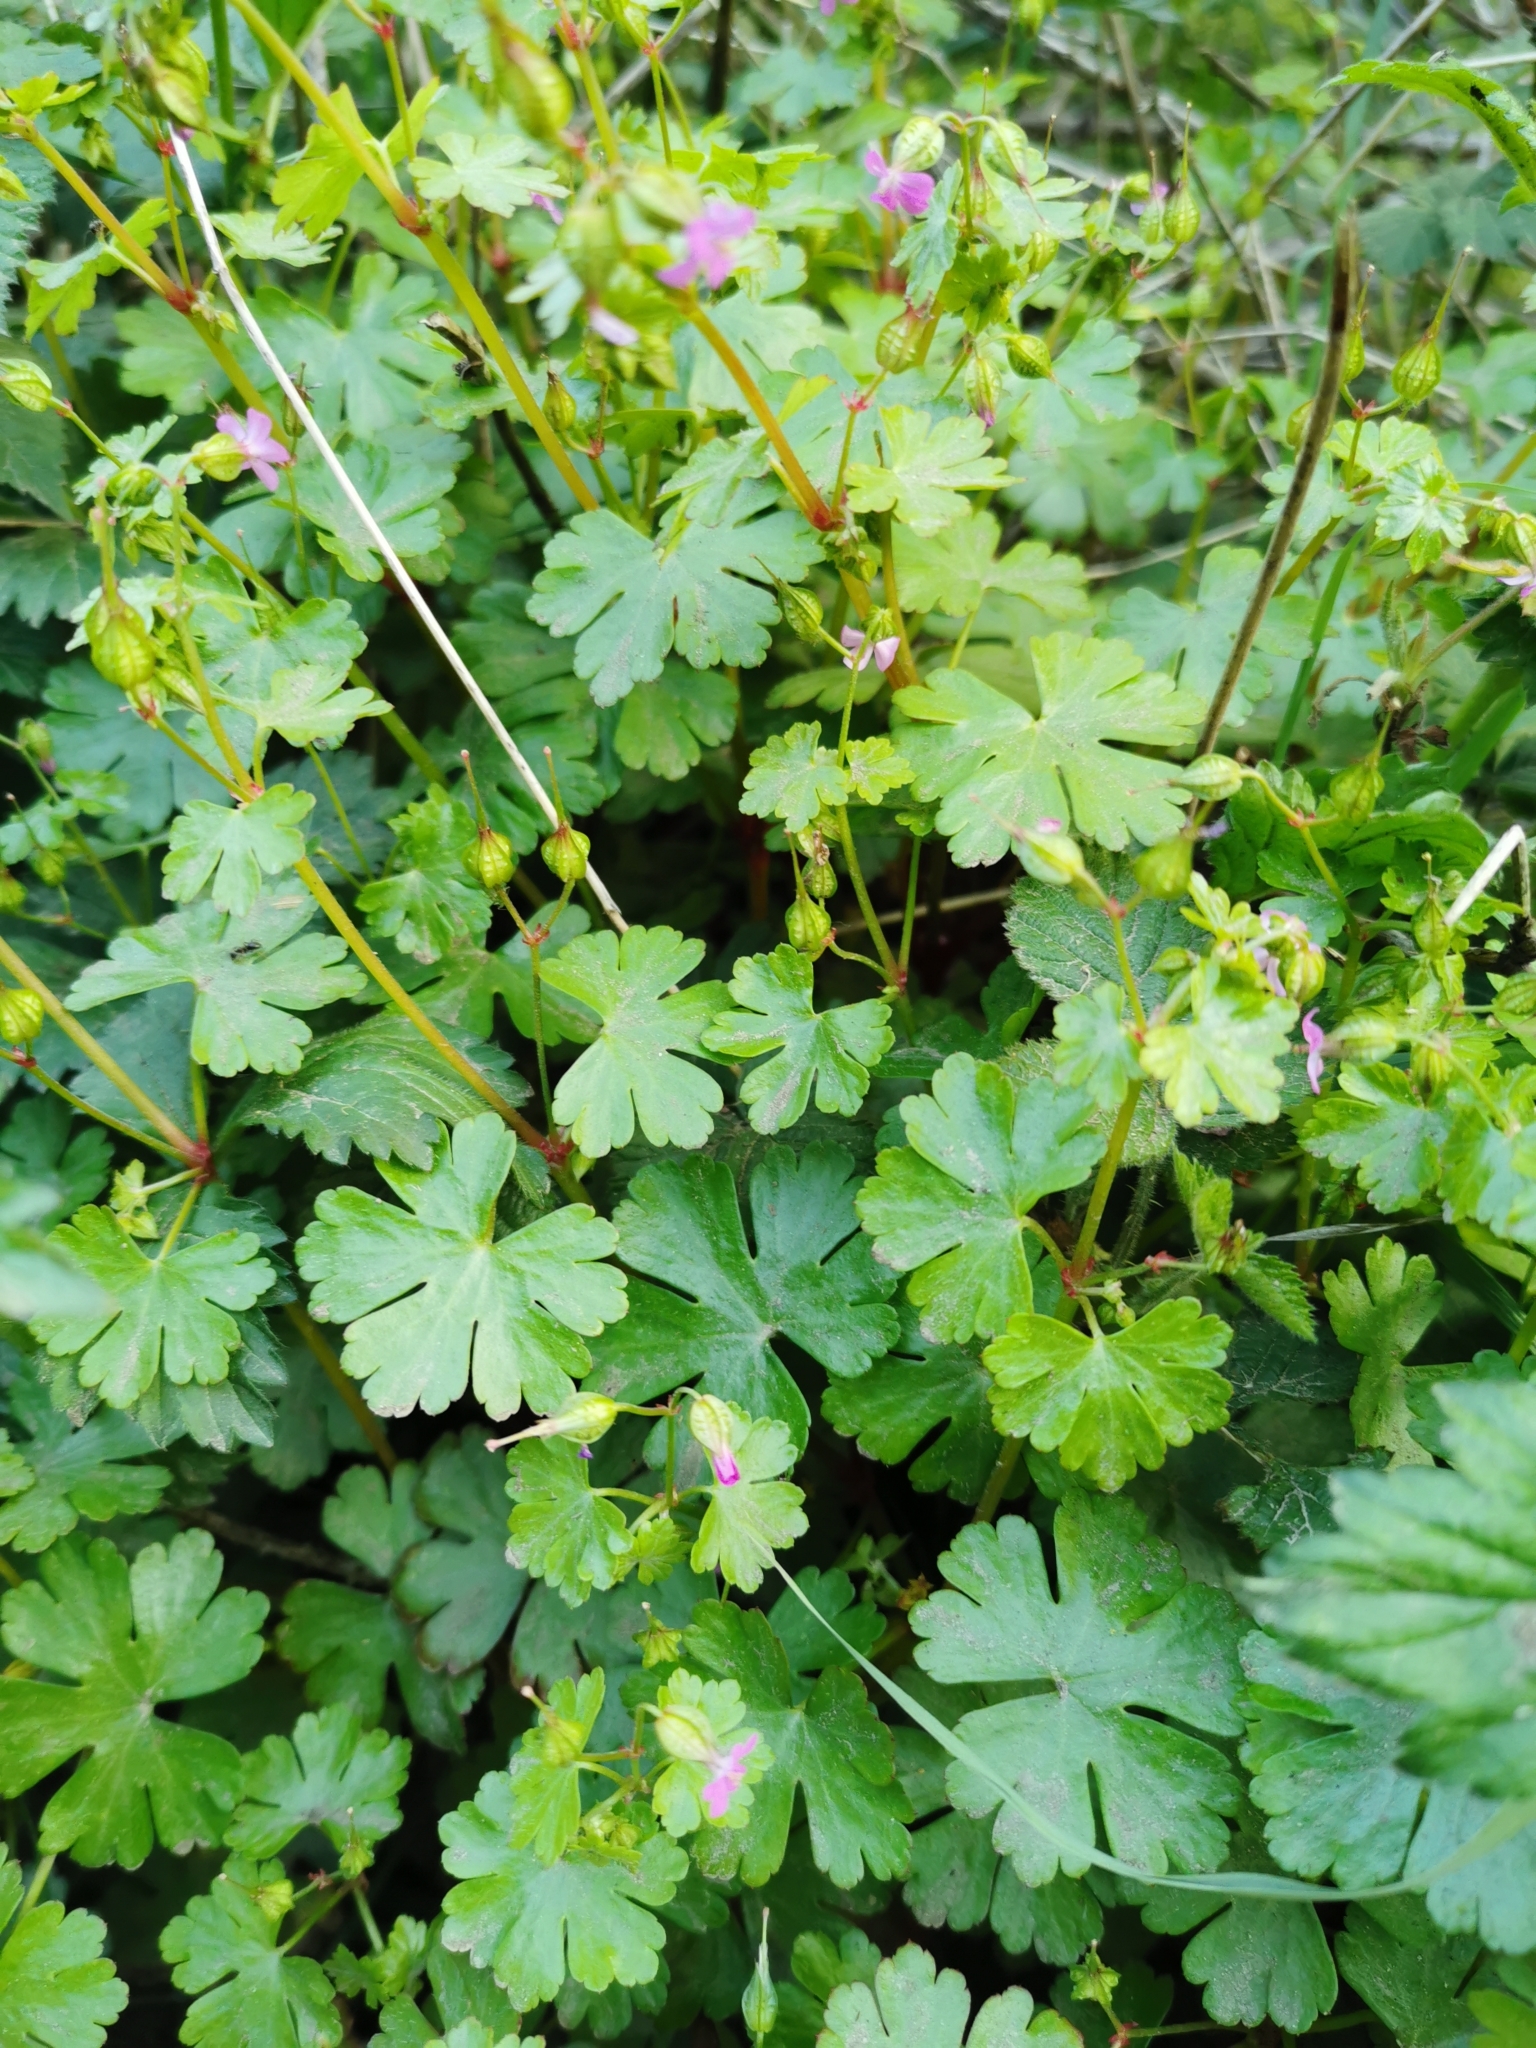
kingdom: Plantae
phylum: Tracheophyta
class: Magnoliopsida
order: Geraniales
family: Geraniaceae
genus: Geranium
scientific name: Geranium lucidum
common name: Shining crane's-bill
